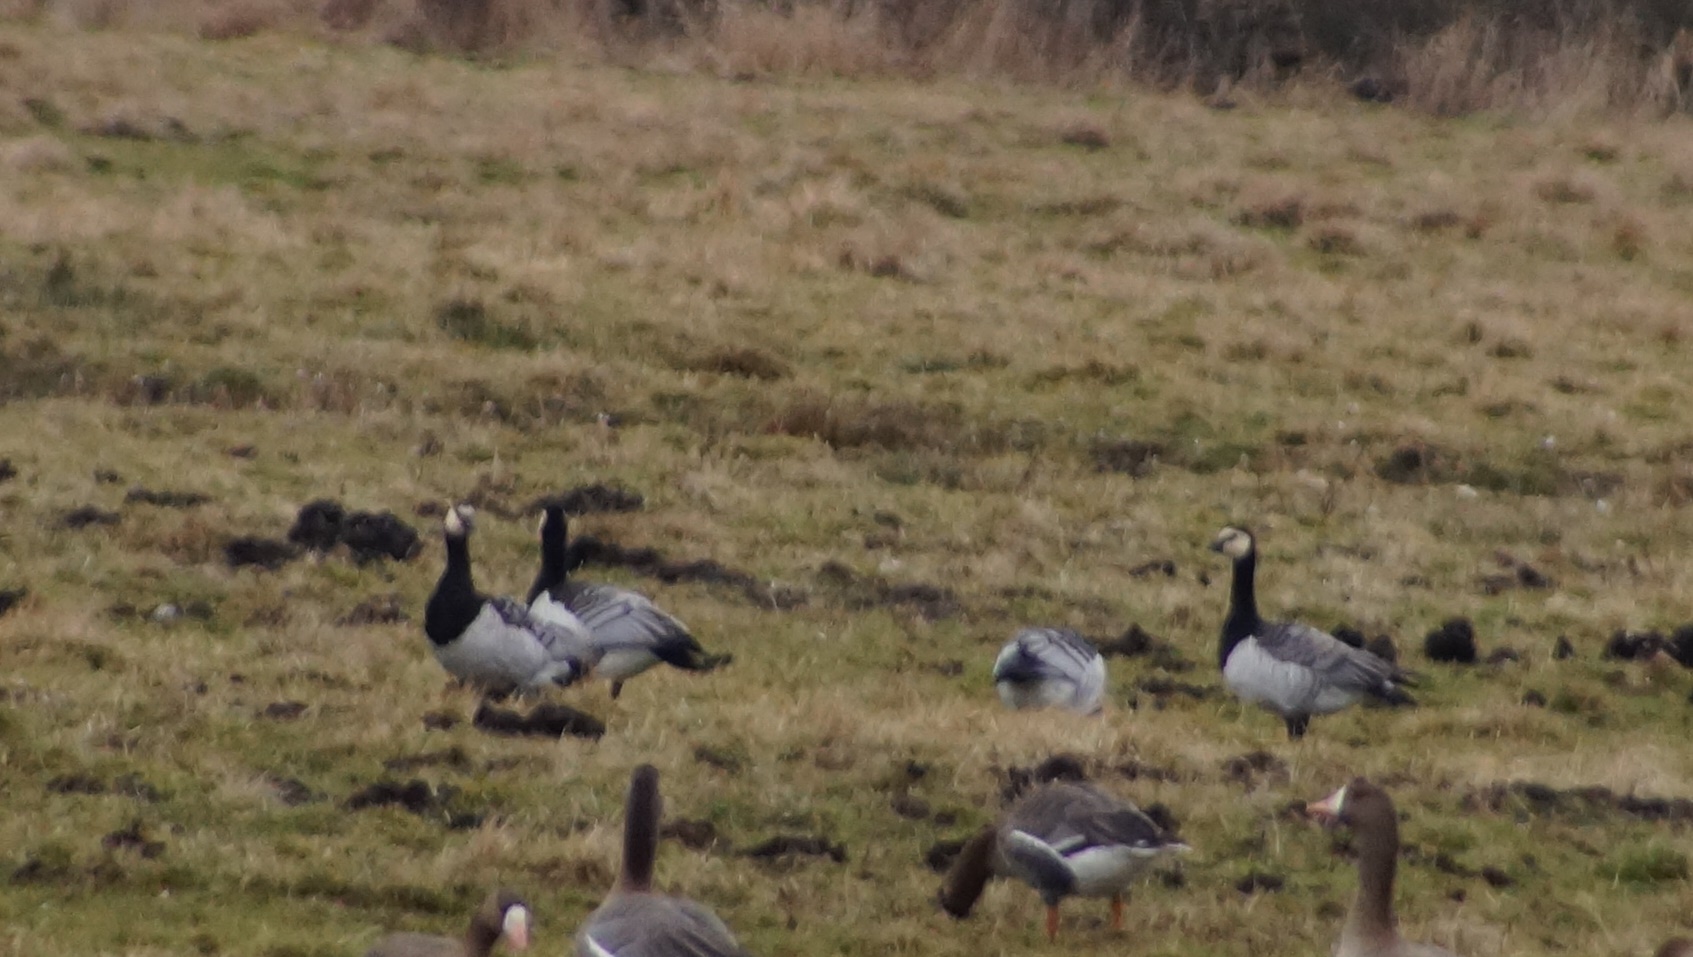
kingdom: Animalia
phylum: Chordata
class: Aves
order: Anseriformes
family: Anatidae
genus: Branta
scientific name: Branta leucopsis
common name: Barnacle goose
